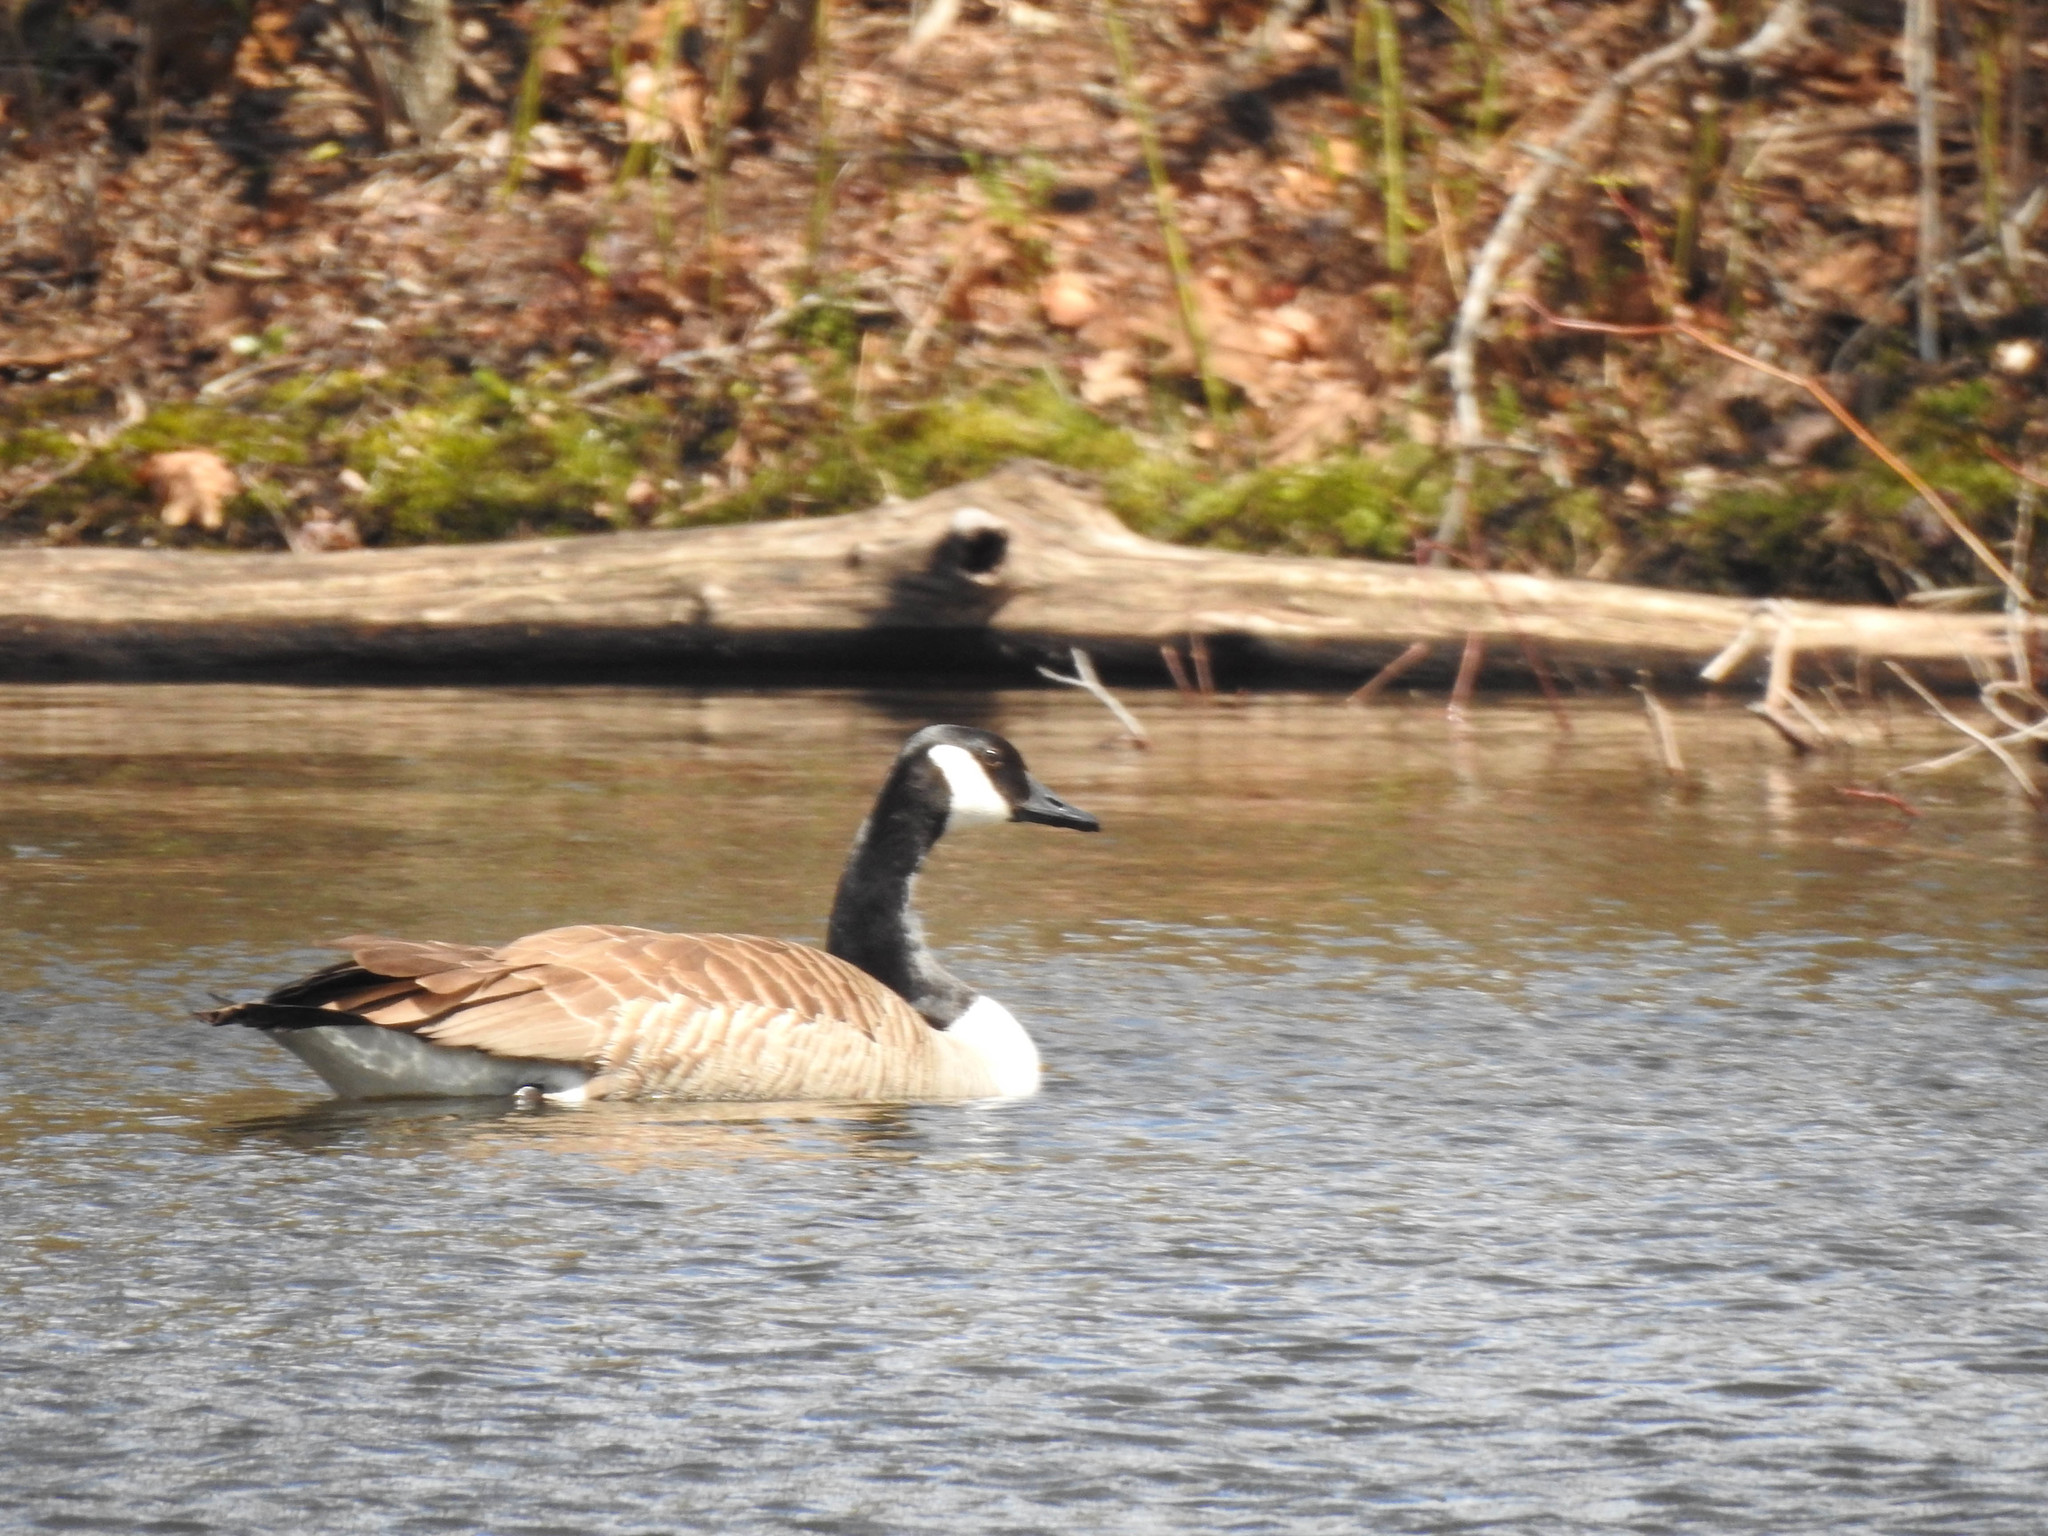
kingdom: Animalia
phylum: Chordata
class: Aves
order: Anseriformes
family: Anatidae
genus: Branta
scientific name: Branta canadensis
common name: Canada goose
